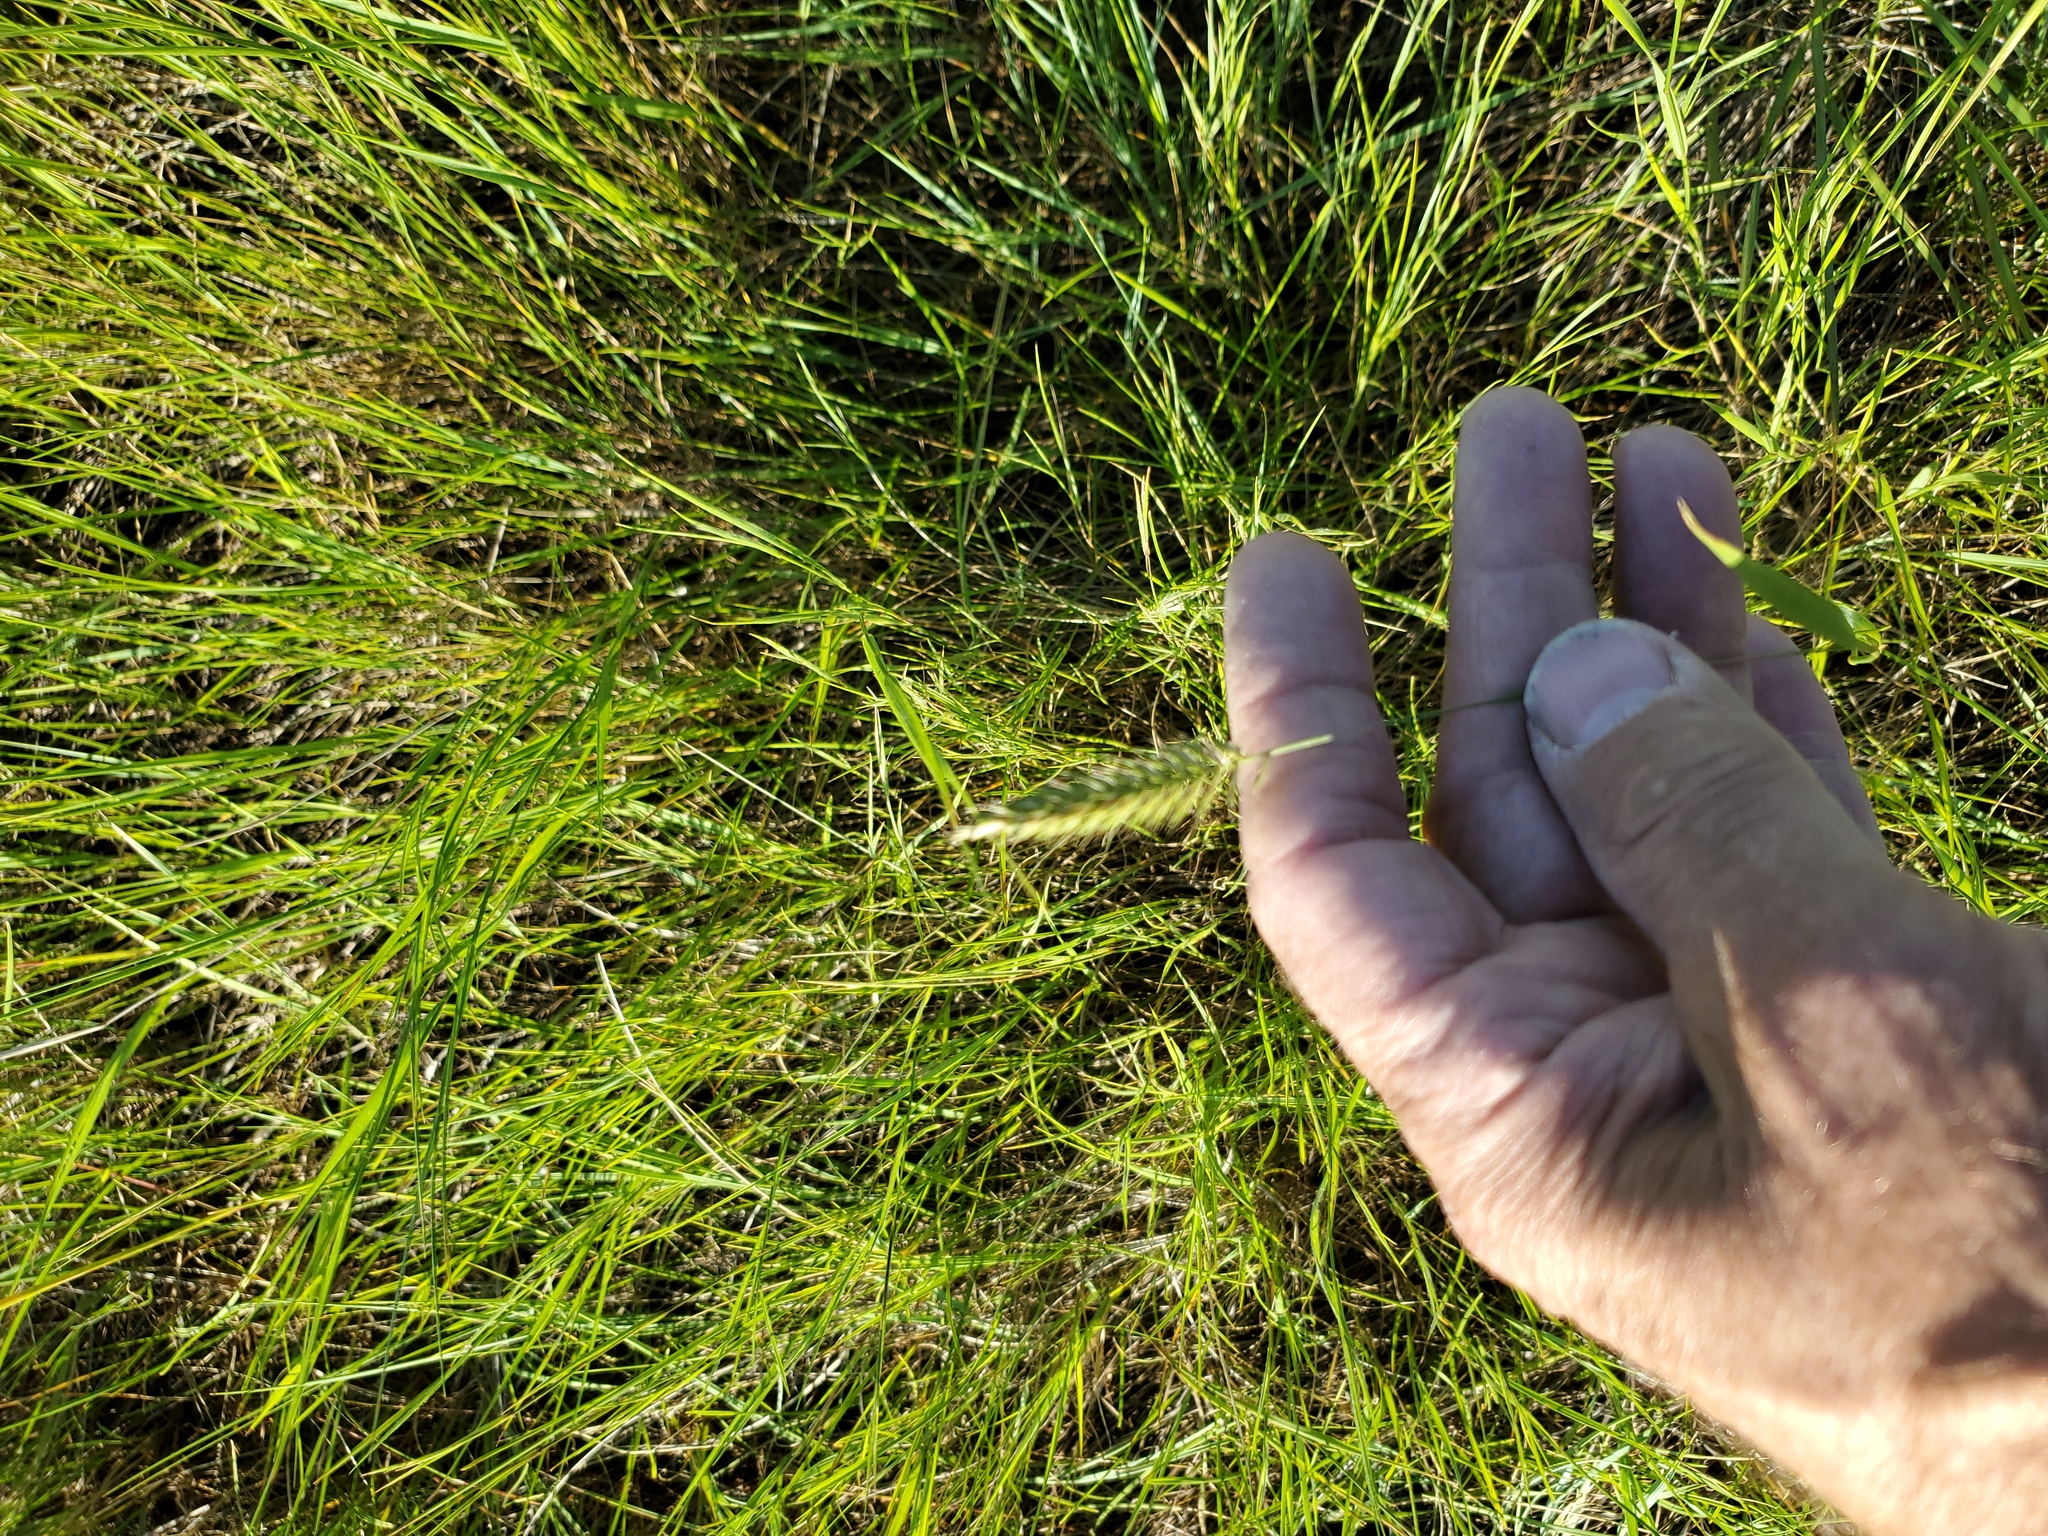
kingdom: Plantae
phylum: Tracheophyta
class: Liliopsida
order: Poales
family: Poaceae
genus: Agropyron
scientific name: Agropyron cristatum
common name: Crested wheatgrass
